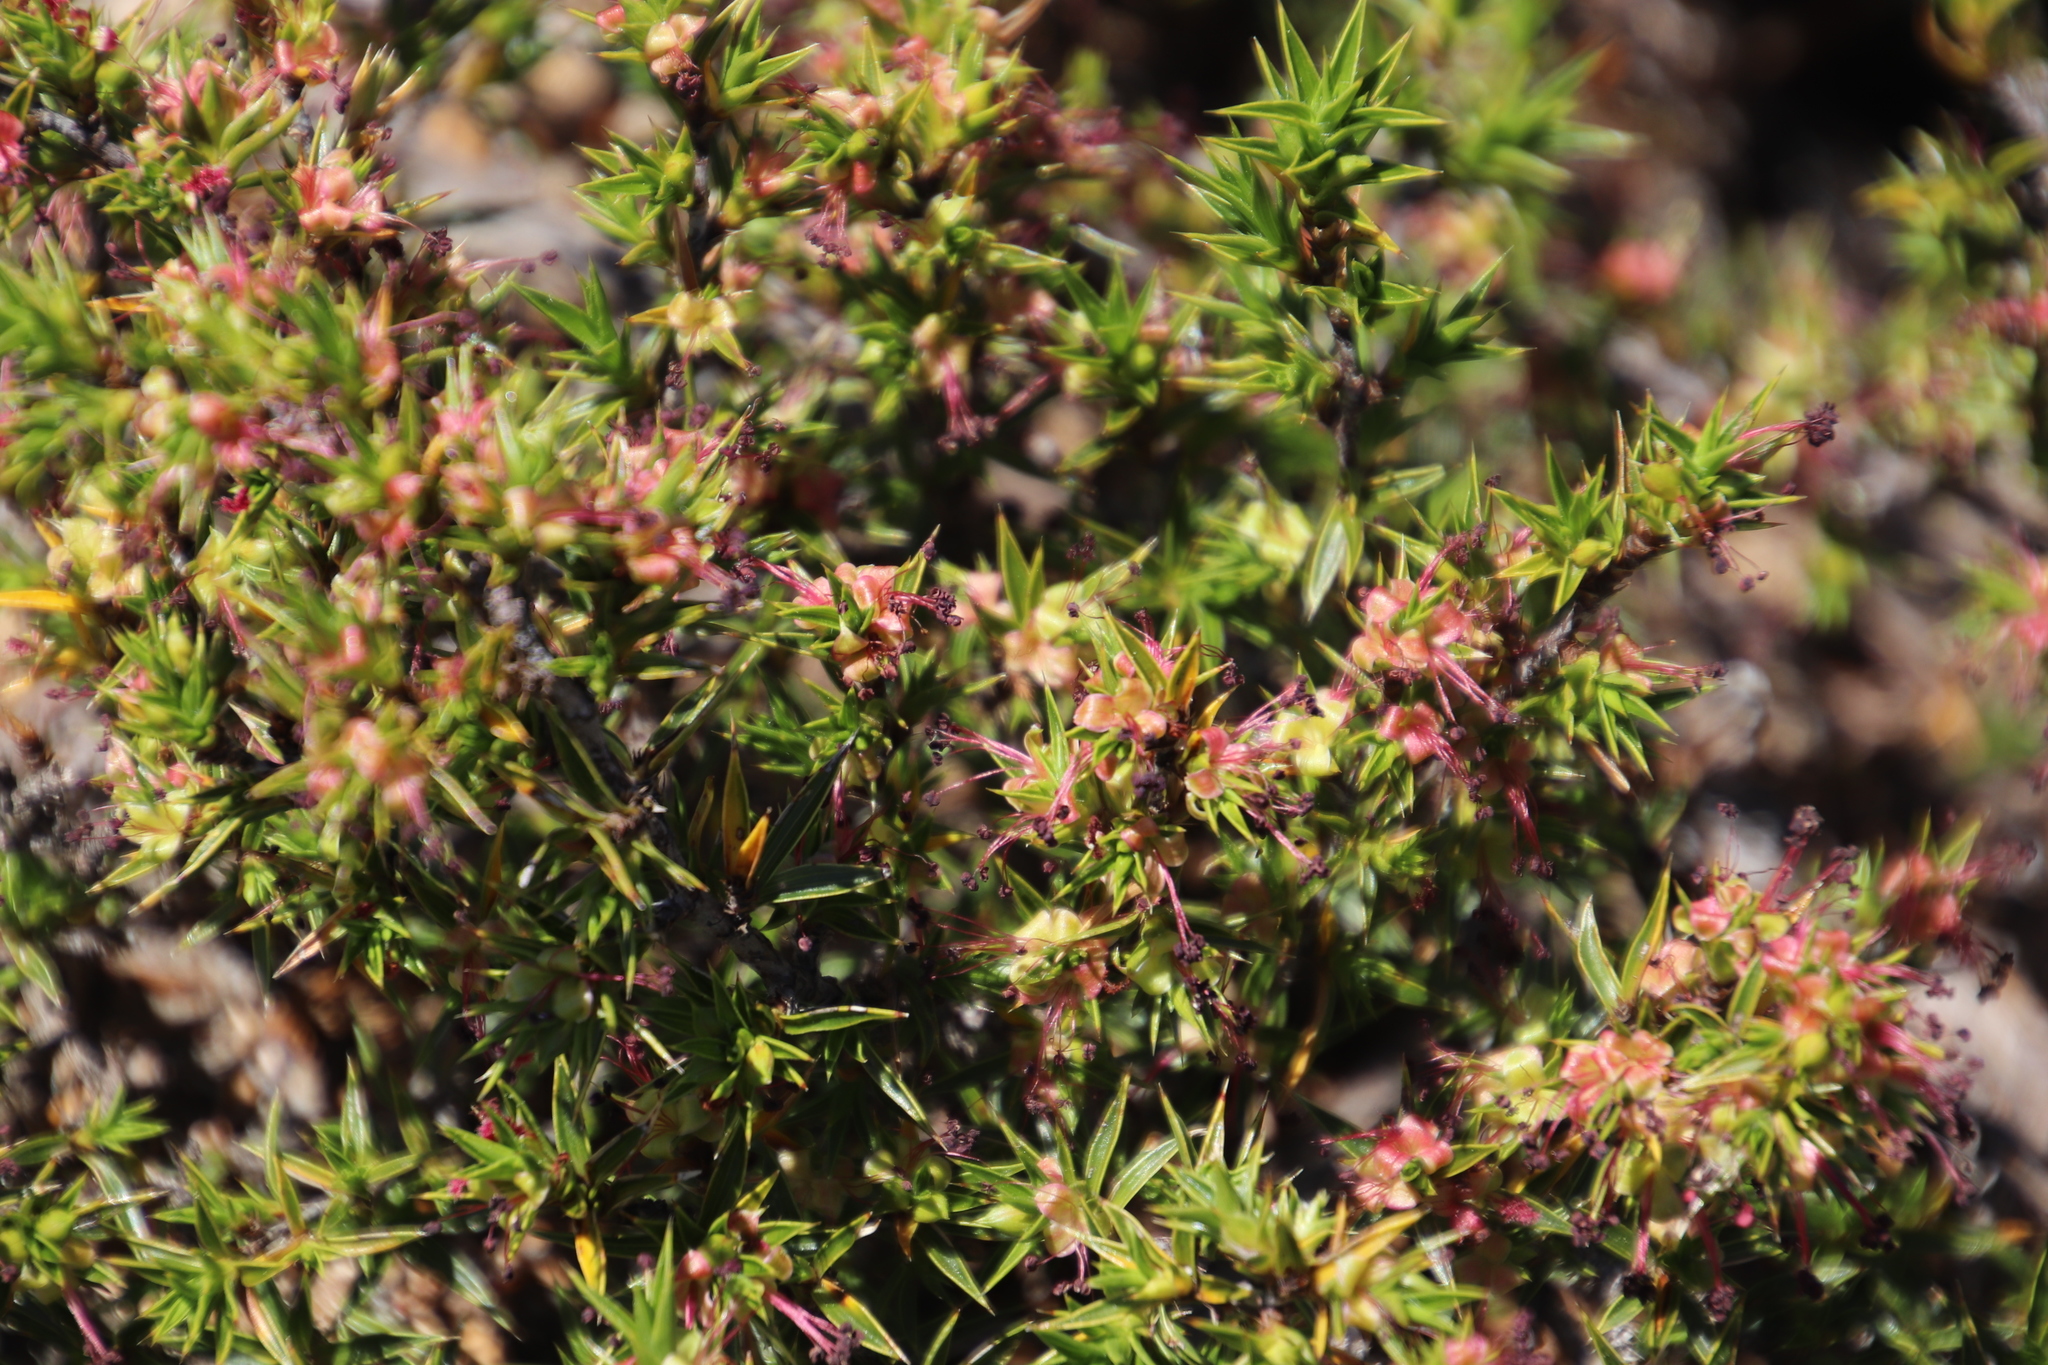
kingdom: Plantae
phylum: Tracheophyta
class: Magnoliopsida
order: Rosales
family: Rosaceae
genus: Cliffortia
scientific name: Cliffortia ruscifolia
